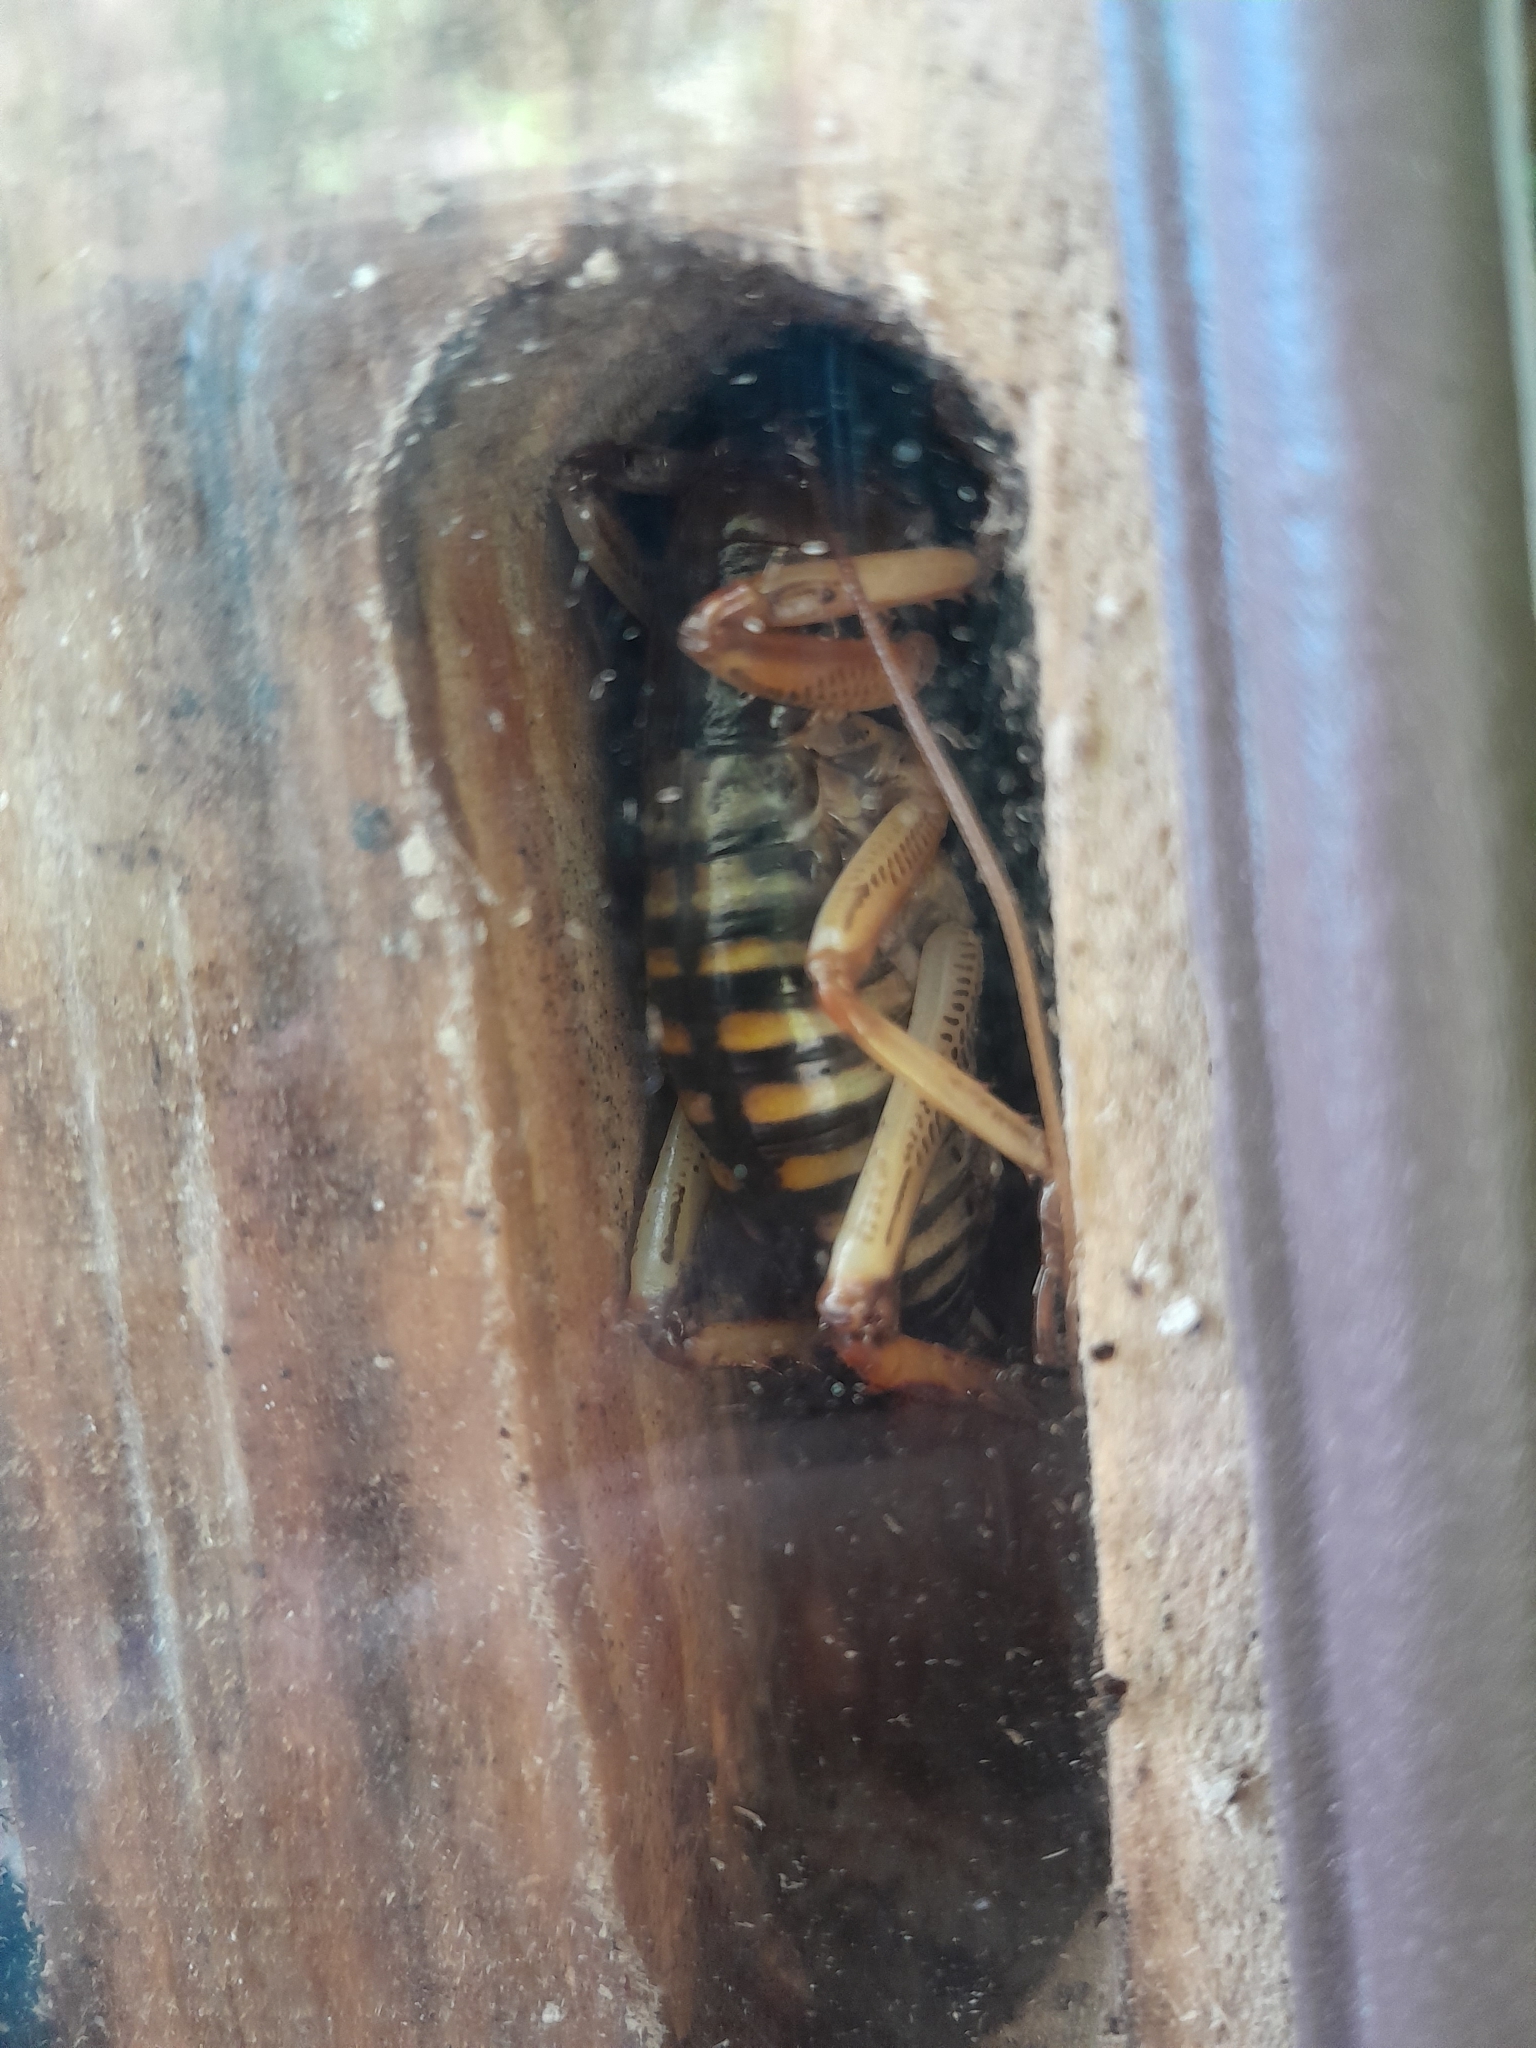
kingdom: Animalia
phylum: Arthropoda
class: Insecta
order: Orthoptera
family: Anostostomatidae
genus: Hemideina
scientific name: Hemideina crassidens
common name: Wellington tree weta
